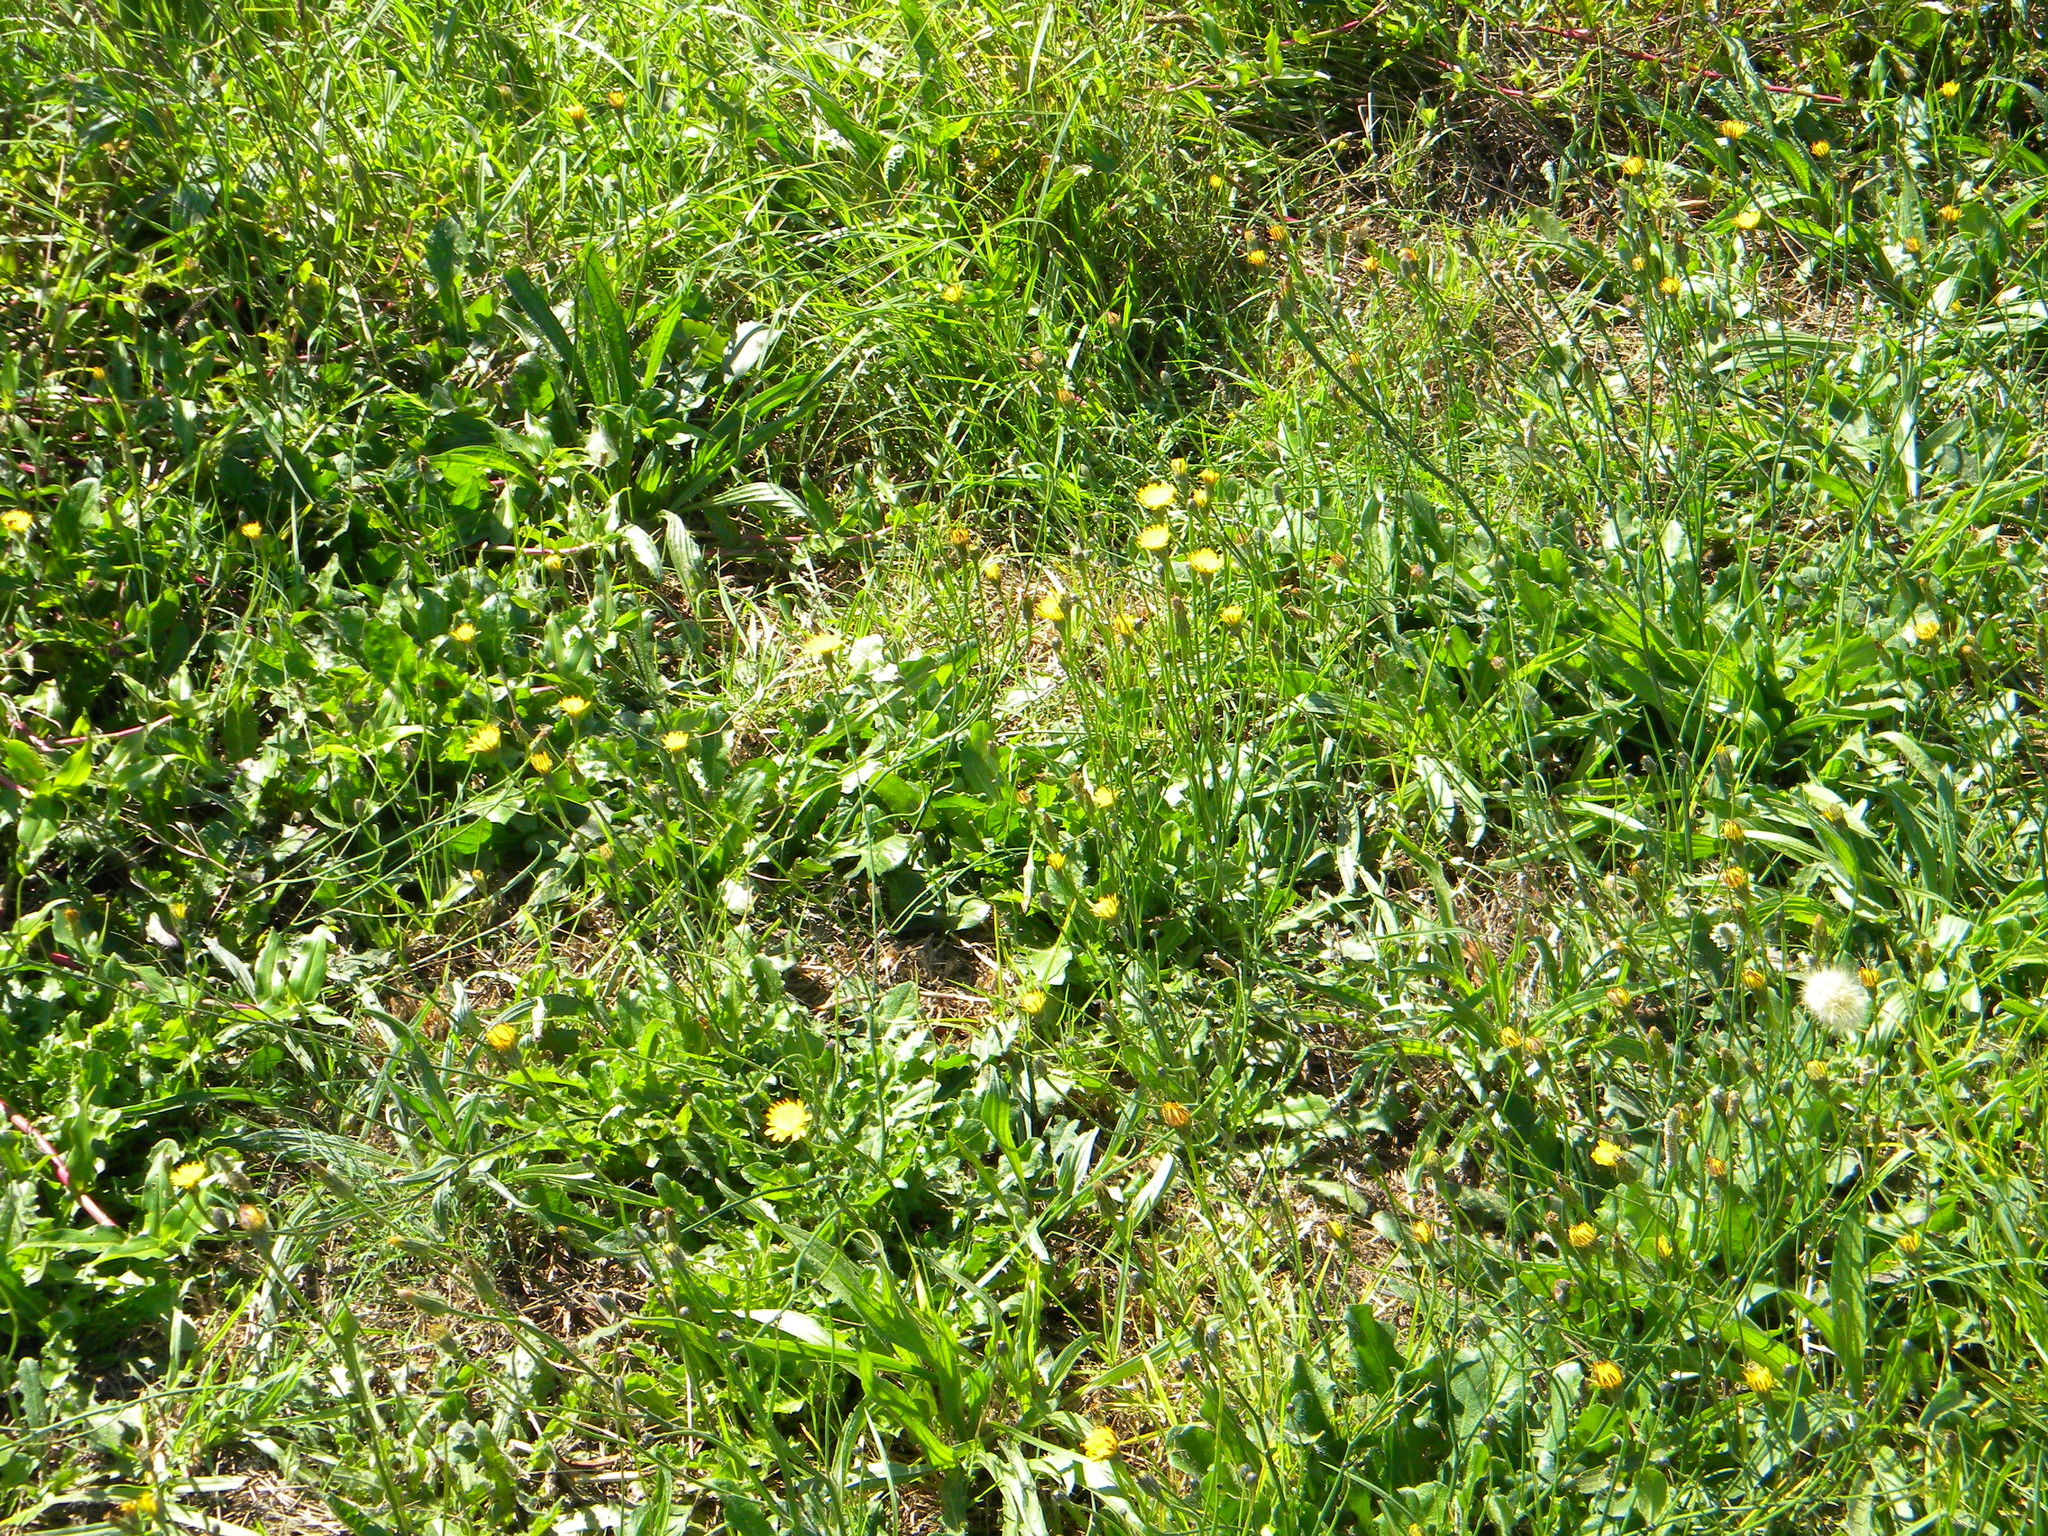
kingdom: Plantae
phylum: Tracheophyta
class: Magnoliopsida
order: Asterales
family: Asteraceae
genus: Hypochaeris
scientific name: Hypochaeris radicata
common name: Flatweed
